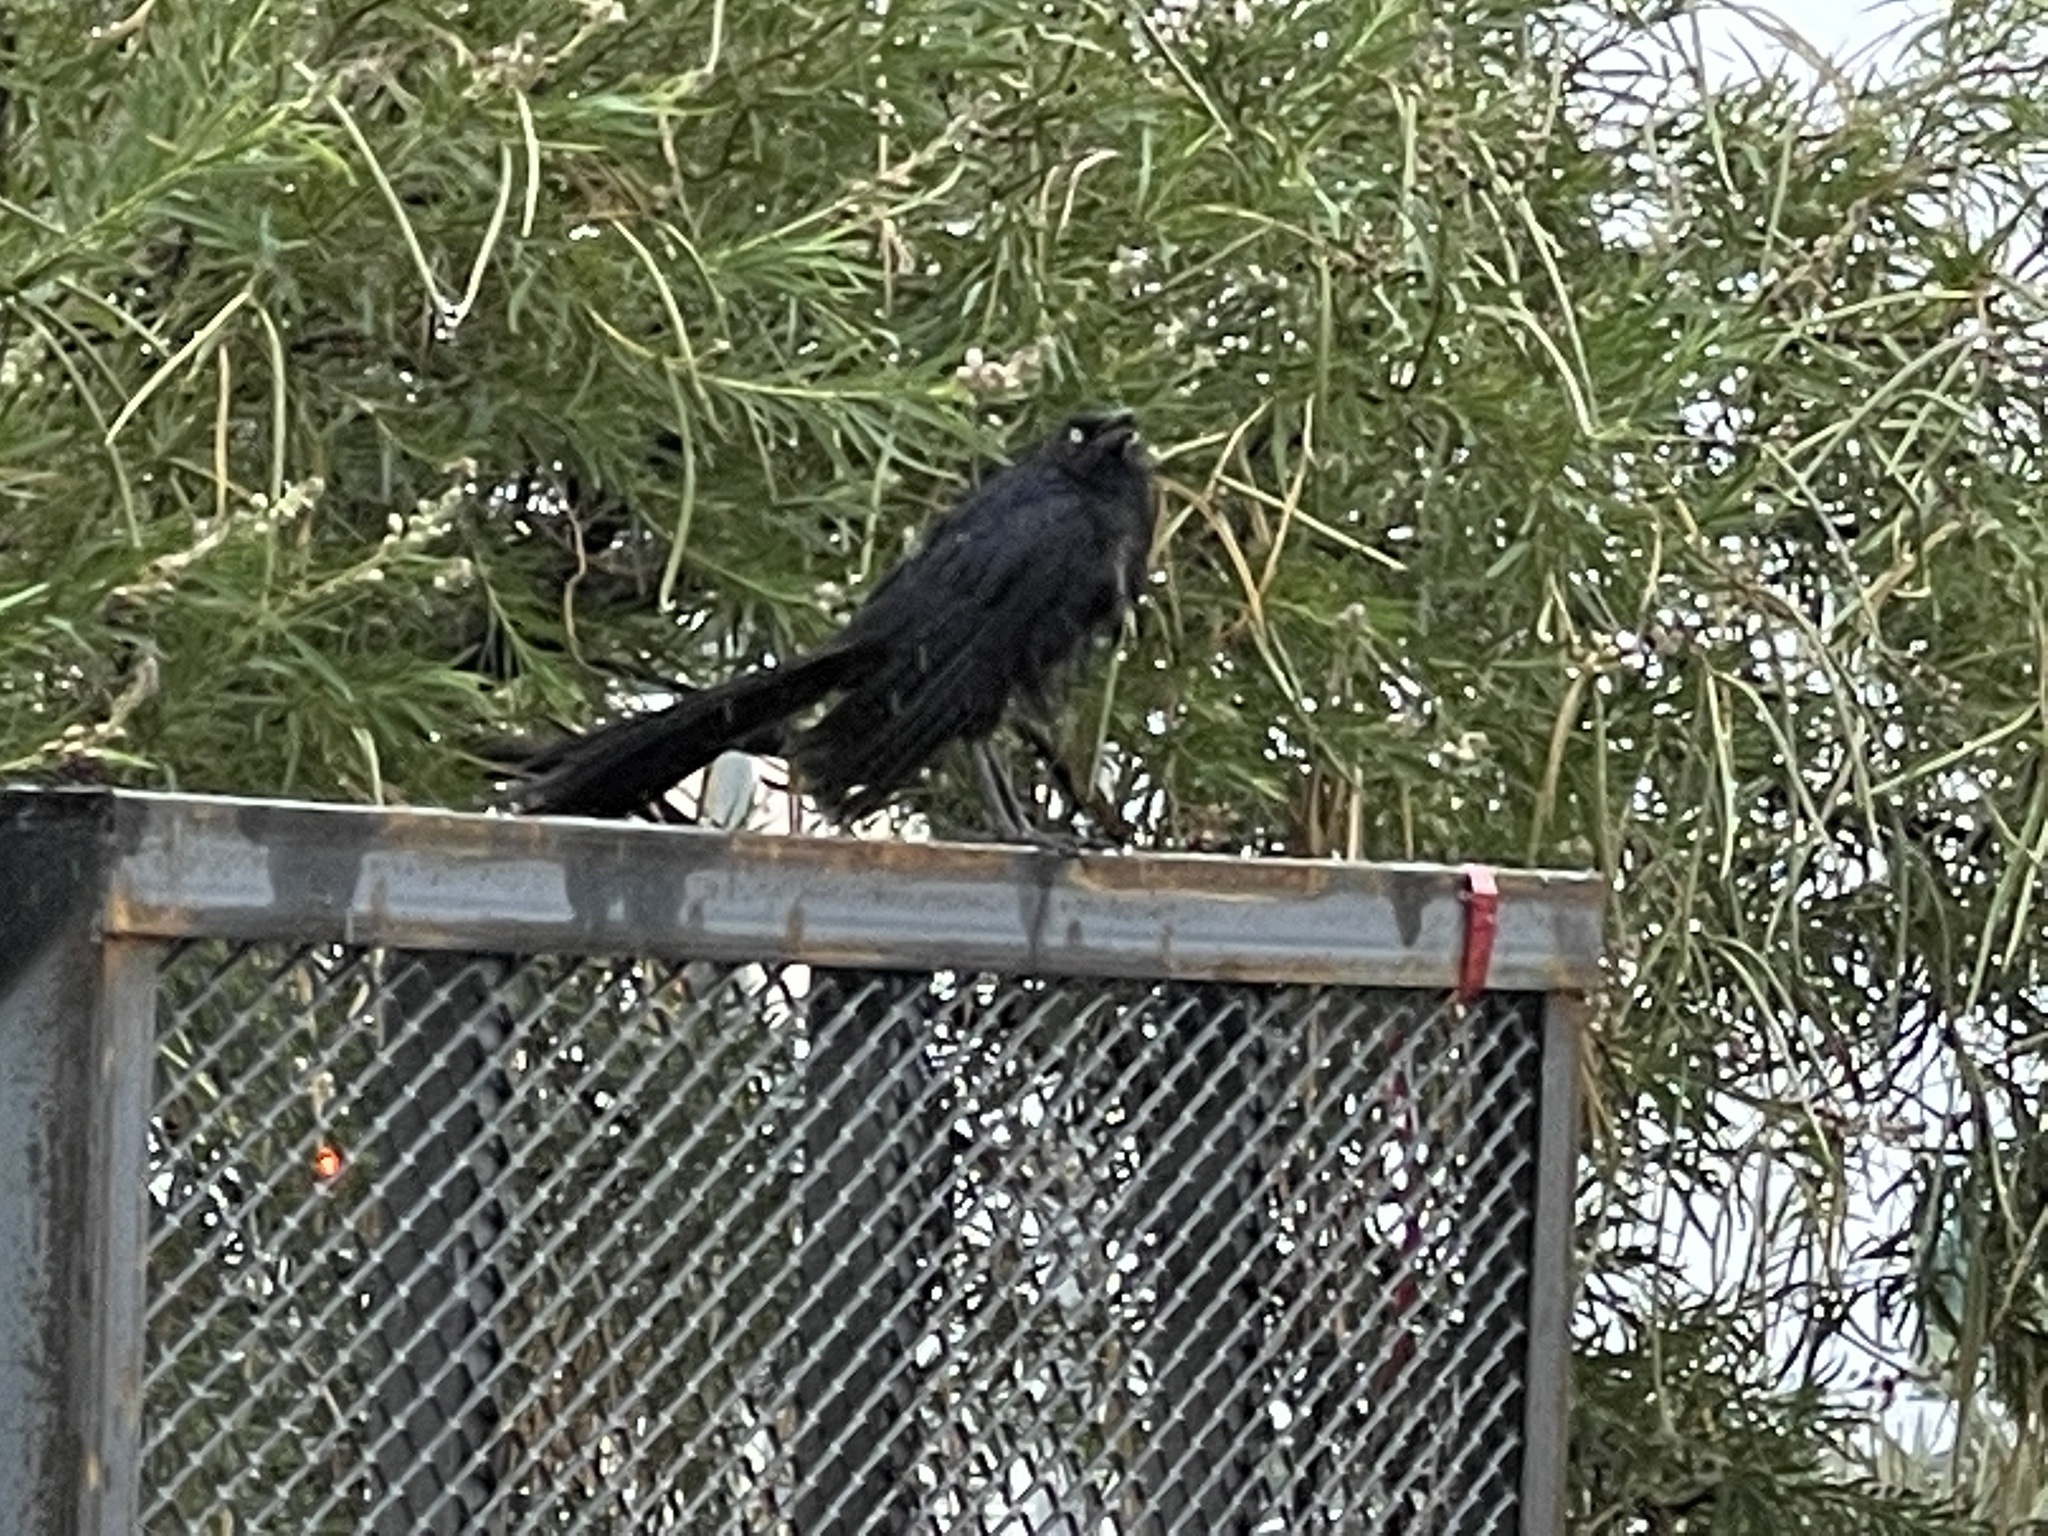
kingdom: Animalia
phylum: Chordata
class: Aves
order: Passeriformes
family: Icteridae
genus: Quiscalus
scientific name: Quiscalus mexicanus
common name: Great-tailed grackle
